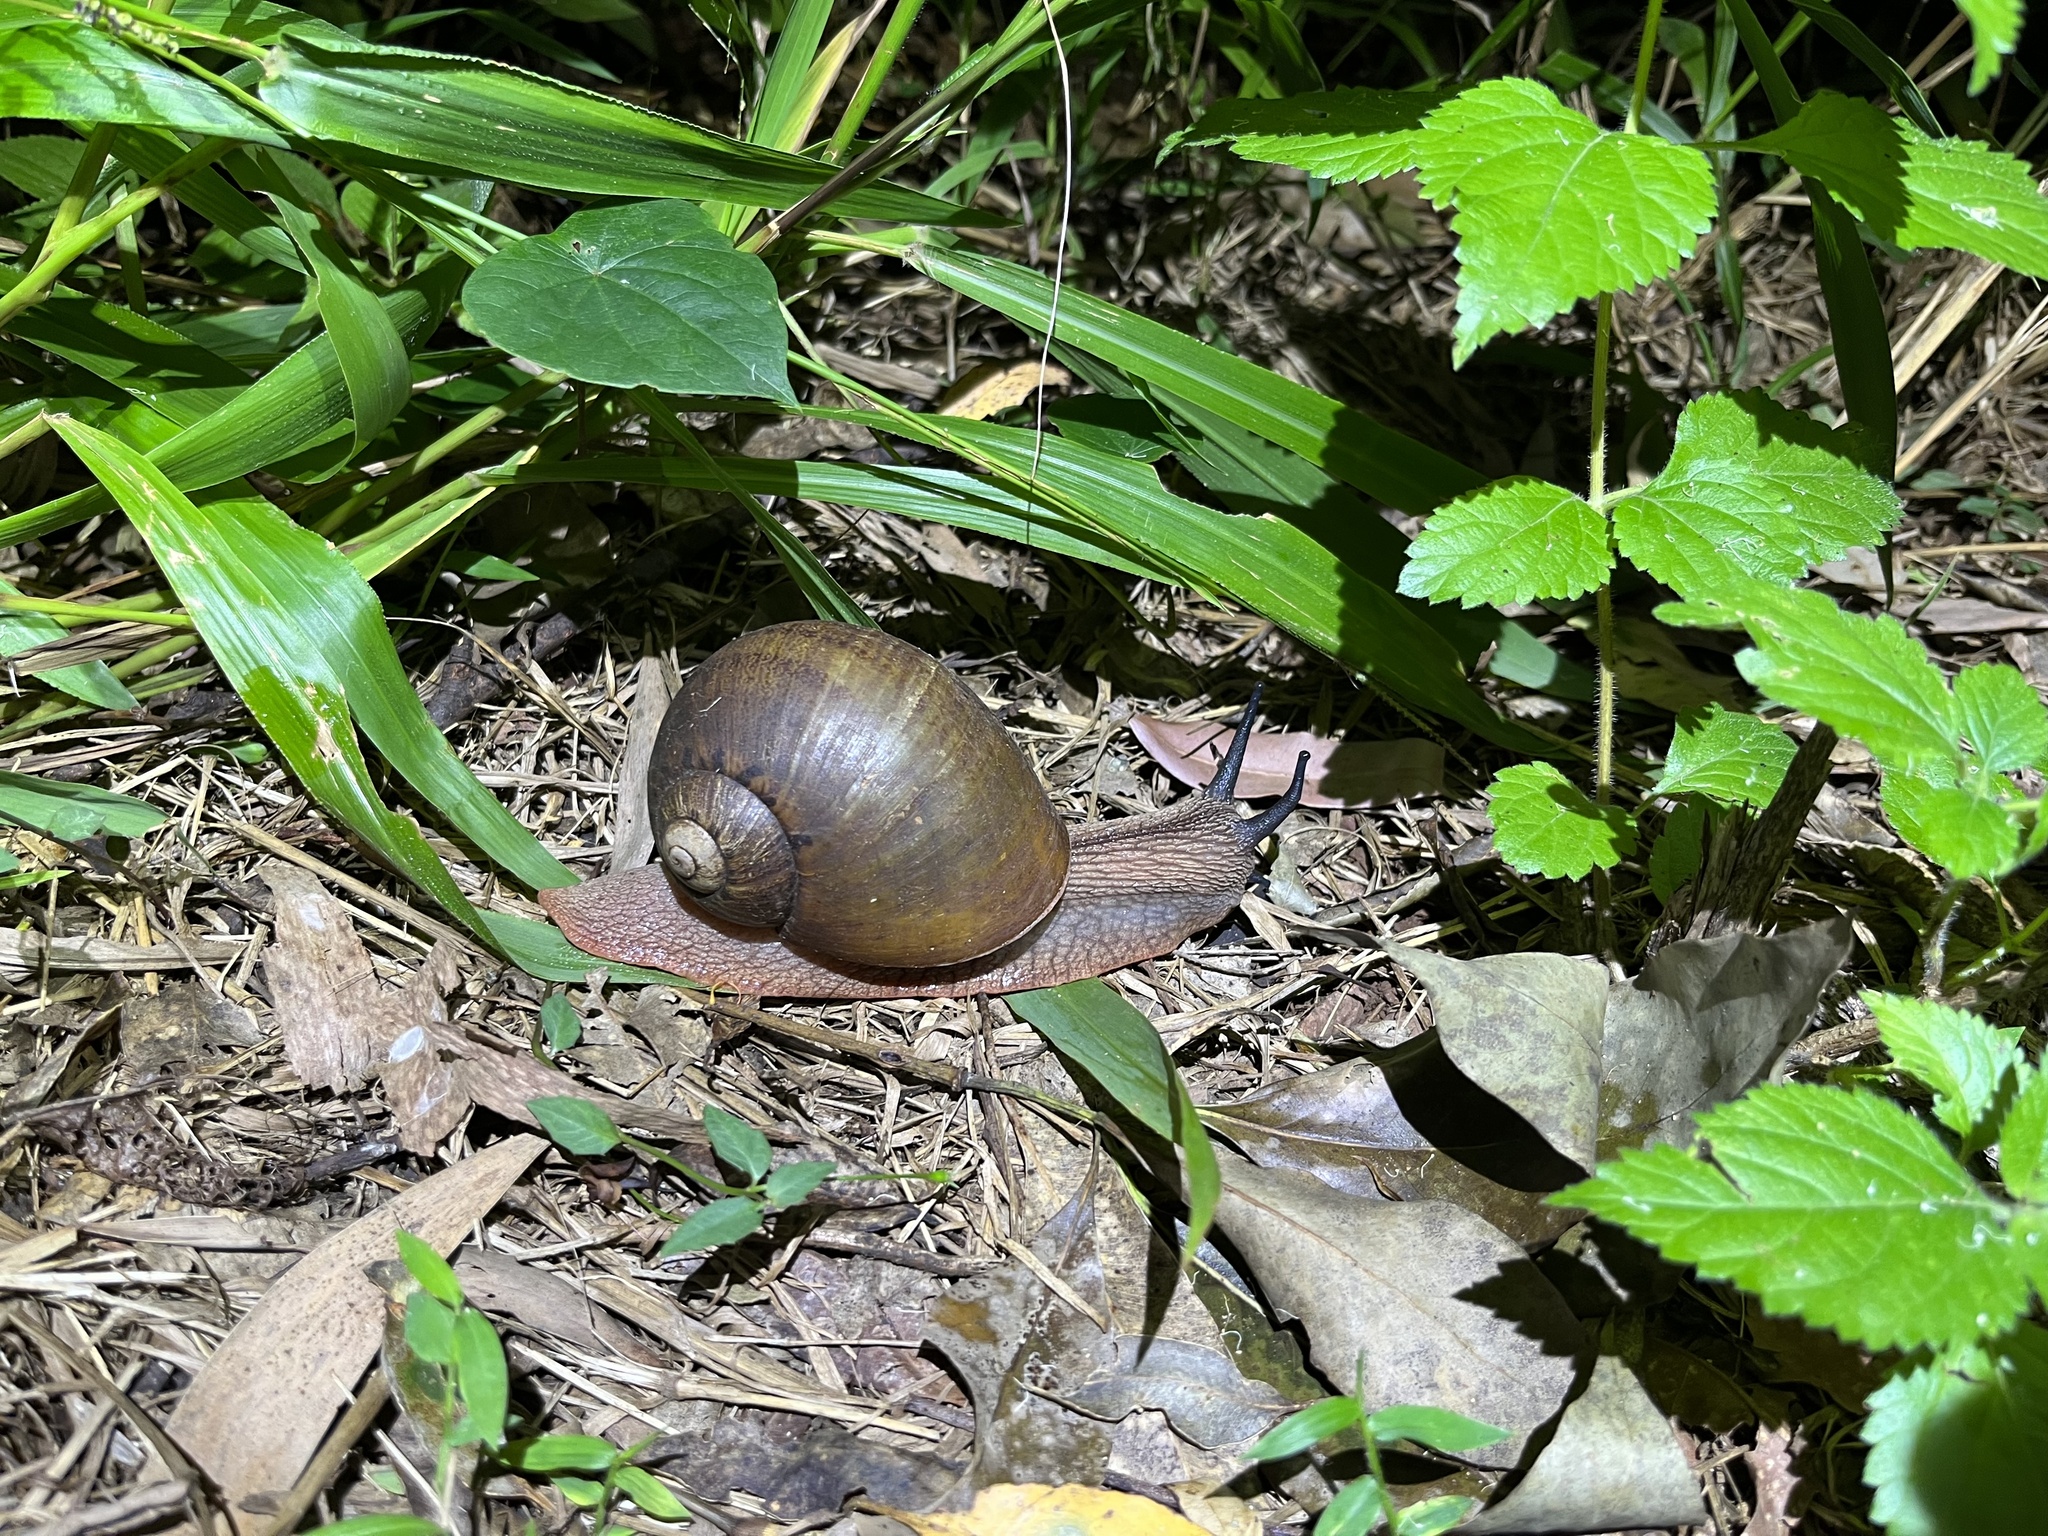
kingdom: Animalia
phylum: Mollusca
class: Gastropoda
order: Stylommatophora
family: Caryodidae
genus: Hedleyella
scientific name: Hedleyella falconeri
